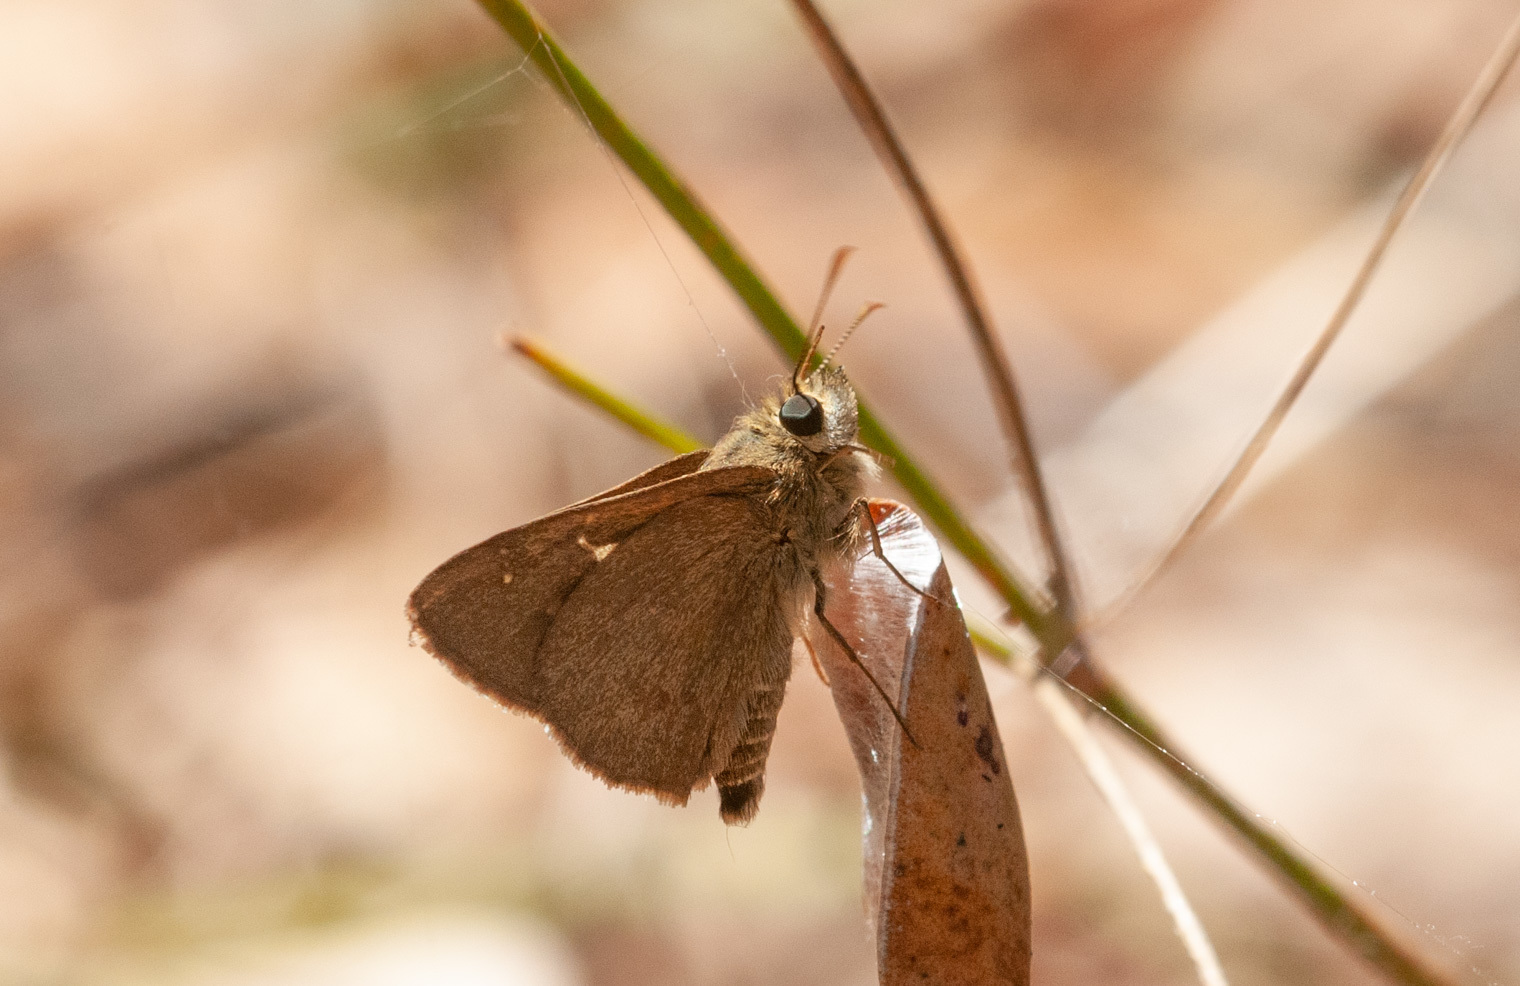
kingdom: Animalia
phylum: Arthropoda
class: Insecta
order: Lepidoptera
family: Hesperiidae
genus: Toxidia
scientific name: Toxidia
